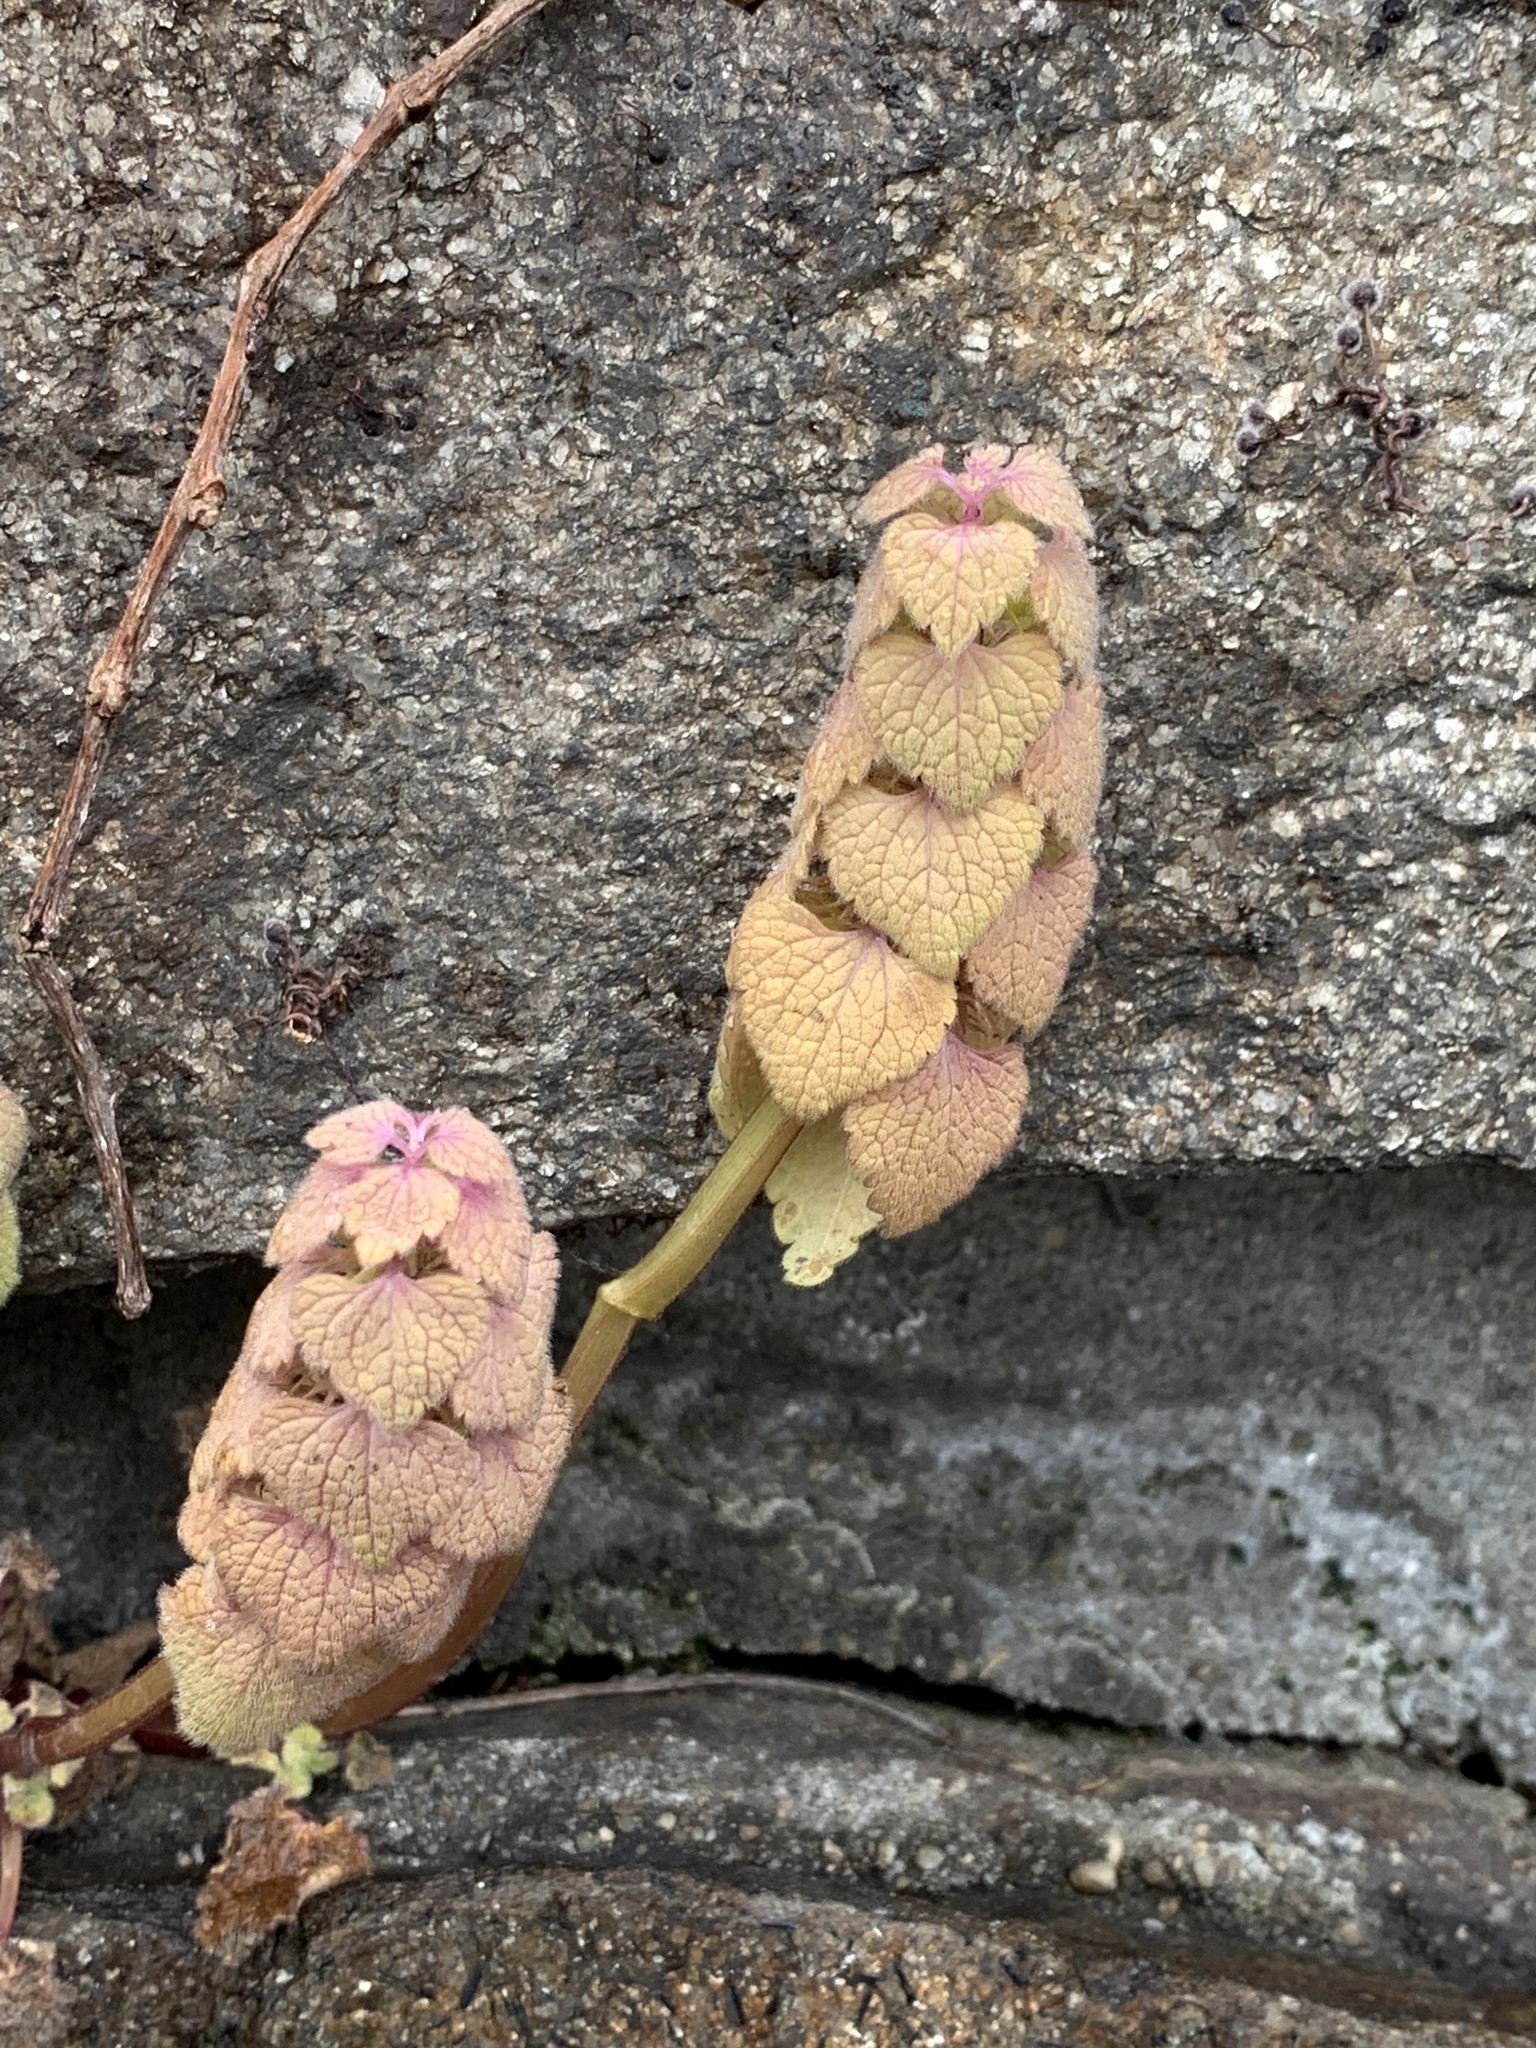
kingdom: Plantae
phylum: Tracheophyta
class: Magnoliopsida
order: Lamiales
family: Lamiaceae
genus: Lamium
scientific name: Lamium purpureum
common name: Red dead-nettle
